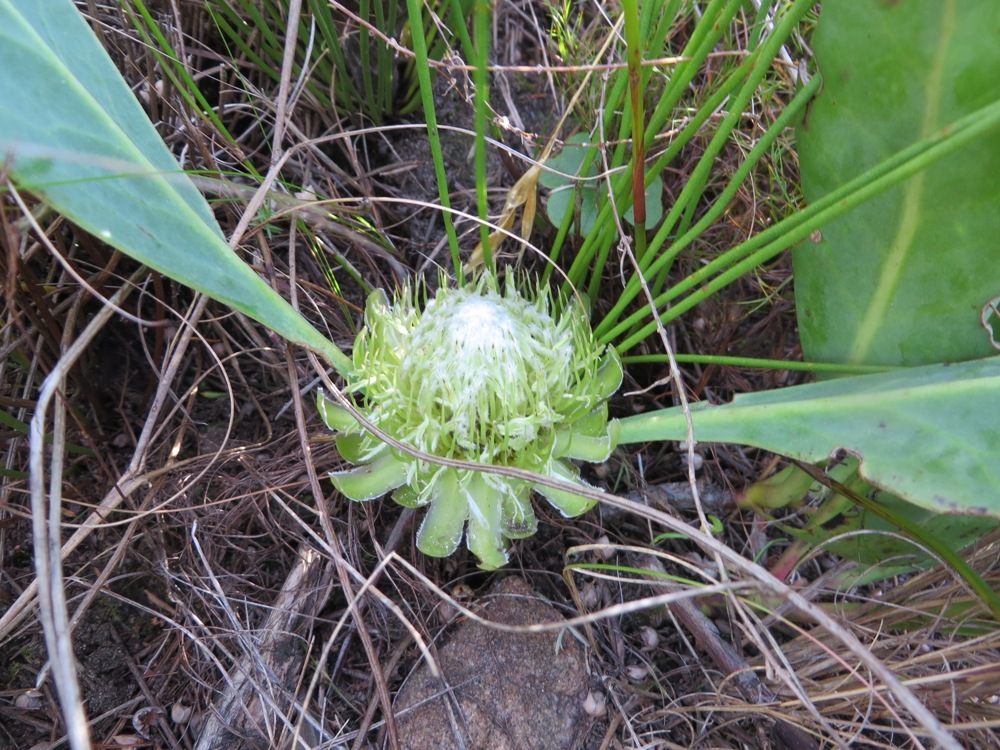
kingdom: Plantae
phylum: Tracheophyta
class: Magnoliopsida
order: Proteales
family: Proteaceae
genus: Protea
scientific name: Protea acaulos
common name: Common ground sugarbush
